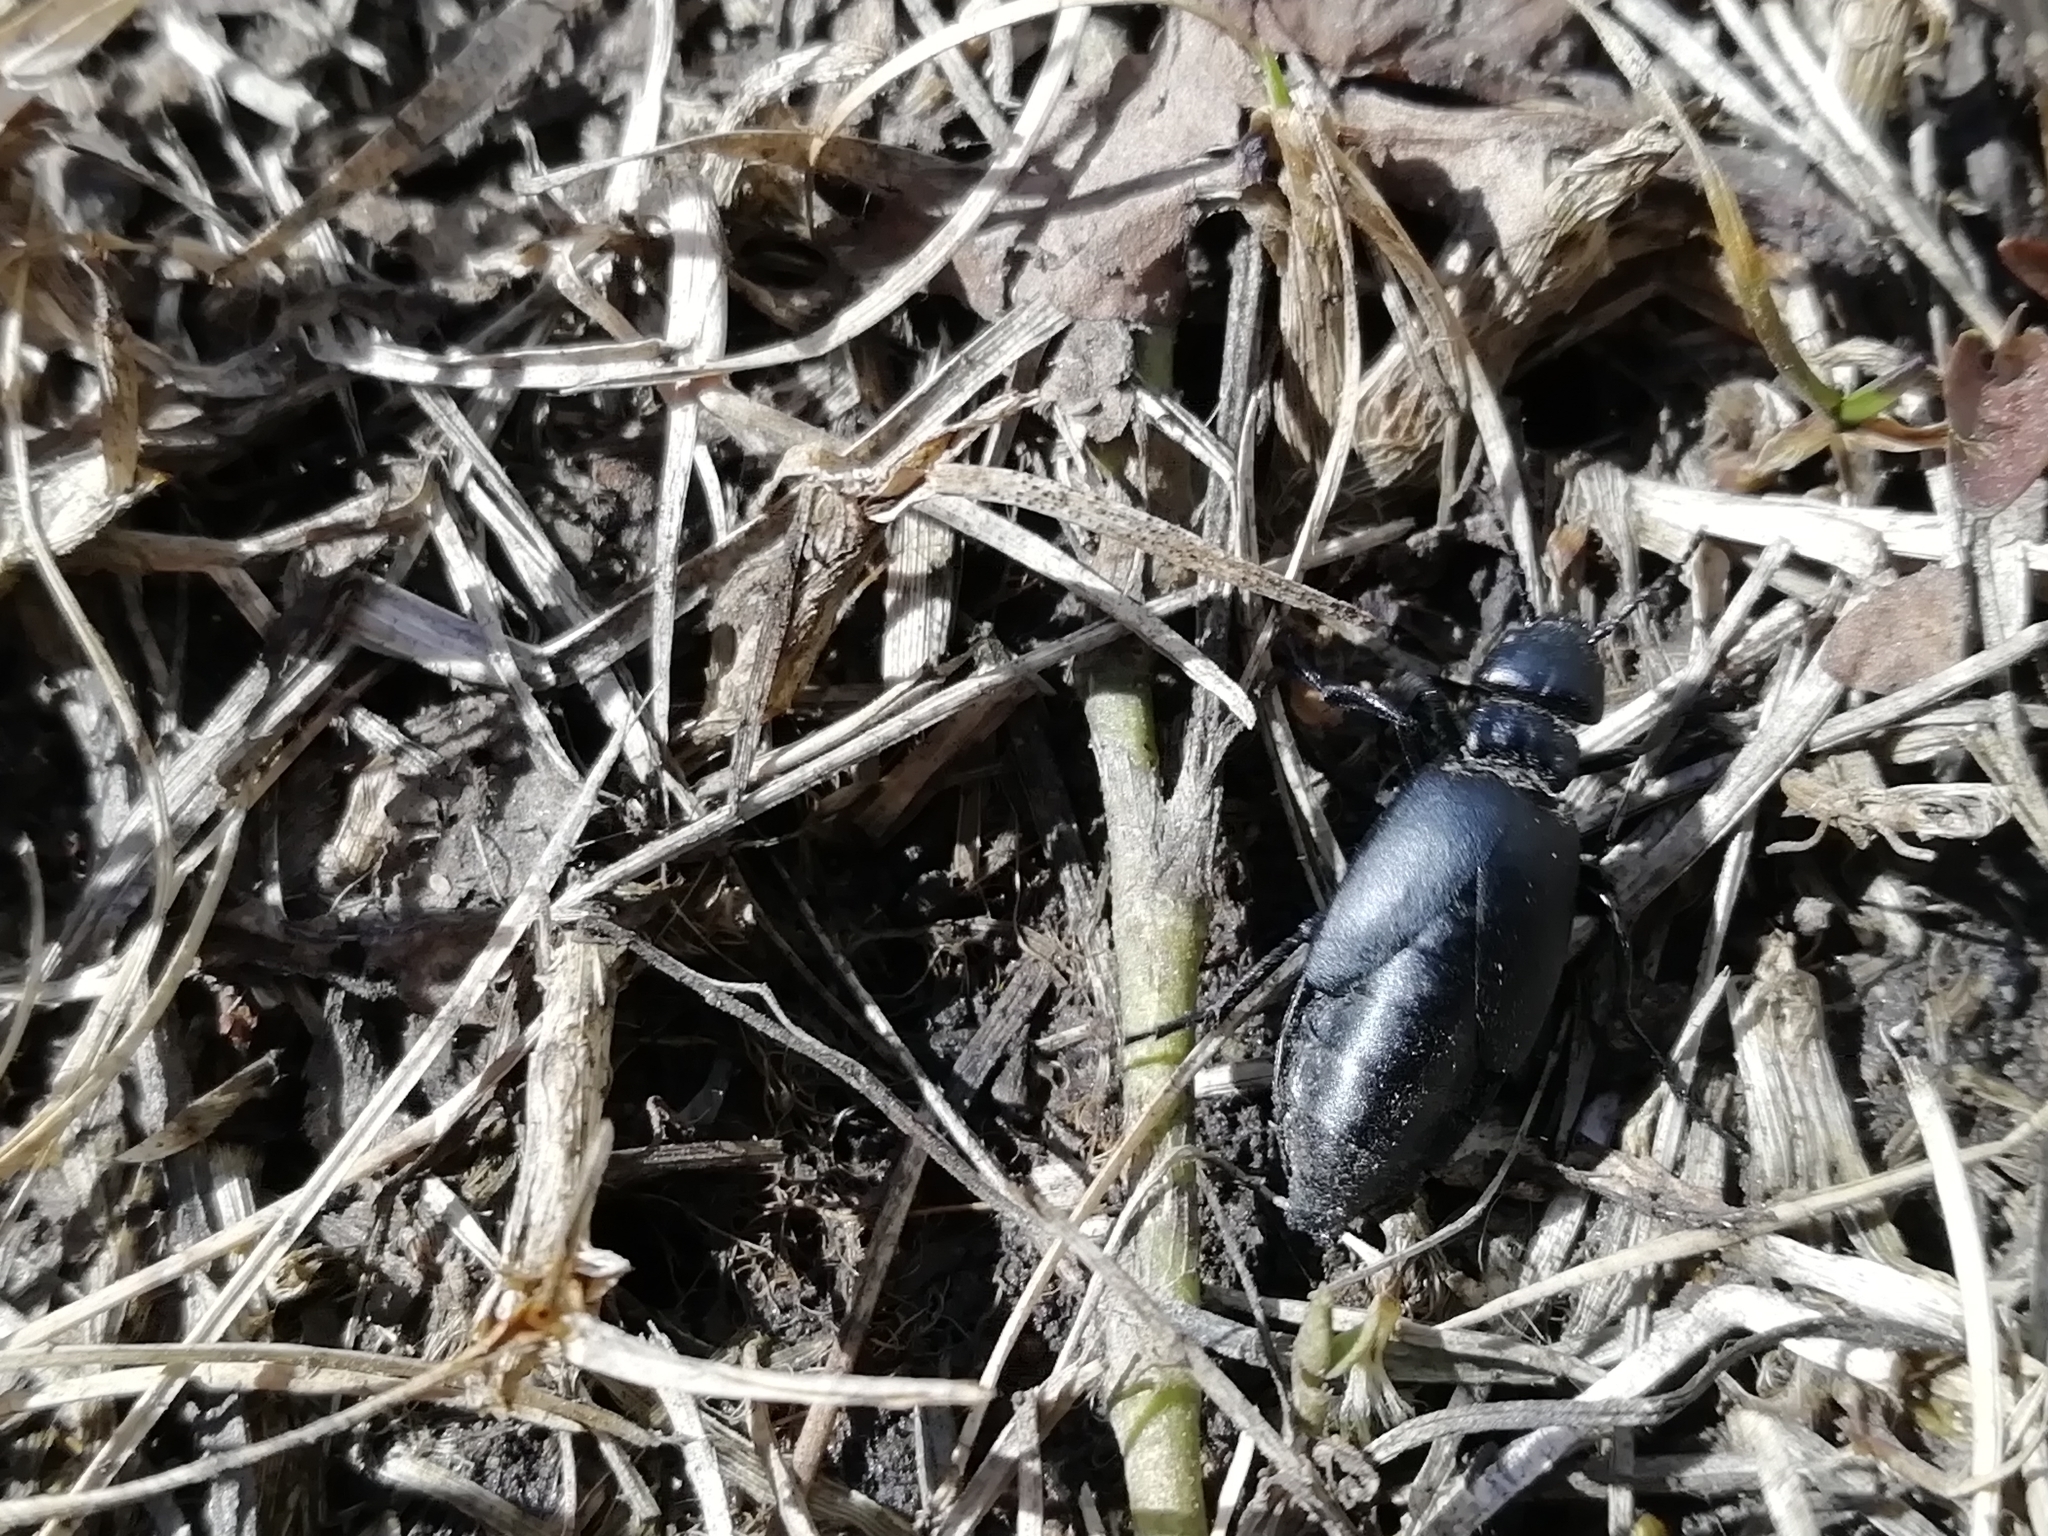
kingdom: Animalia
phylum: Arthropoda
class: Insecta
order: Coleoptera
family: Meloidae
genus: Meloe
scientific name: Meloe decorus
